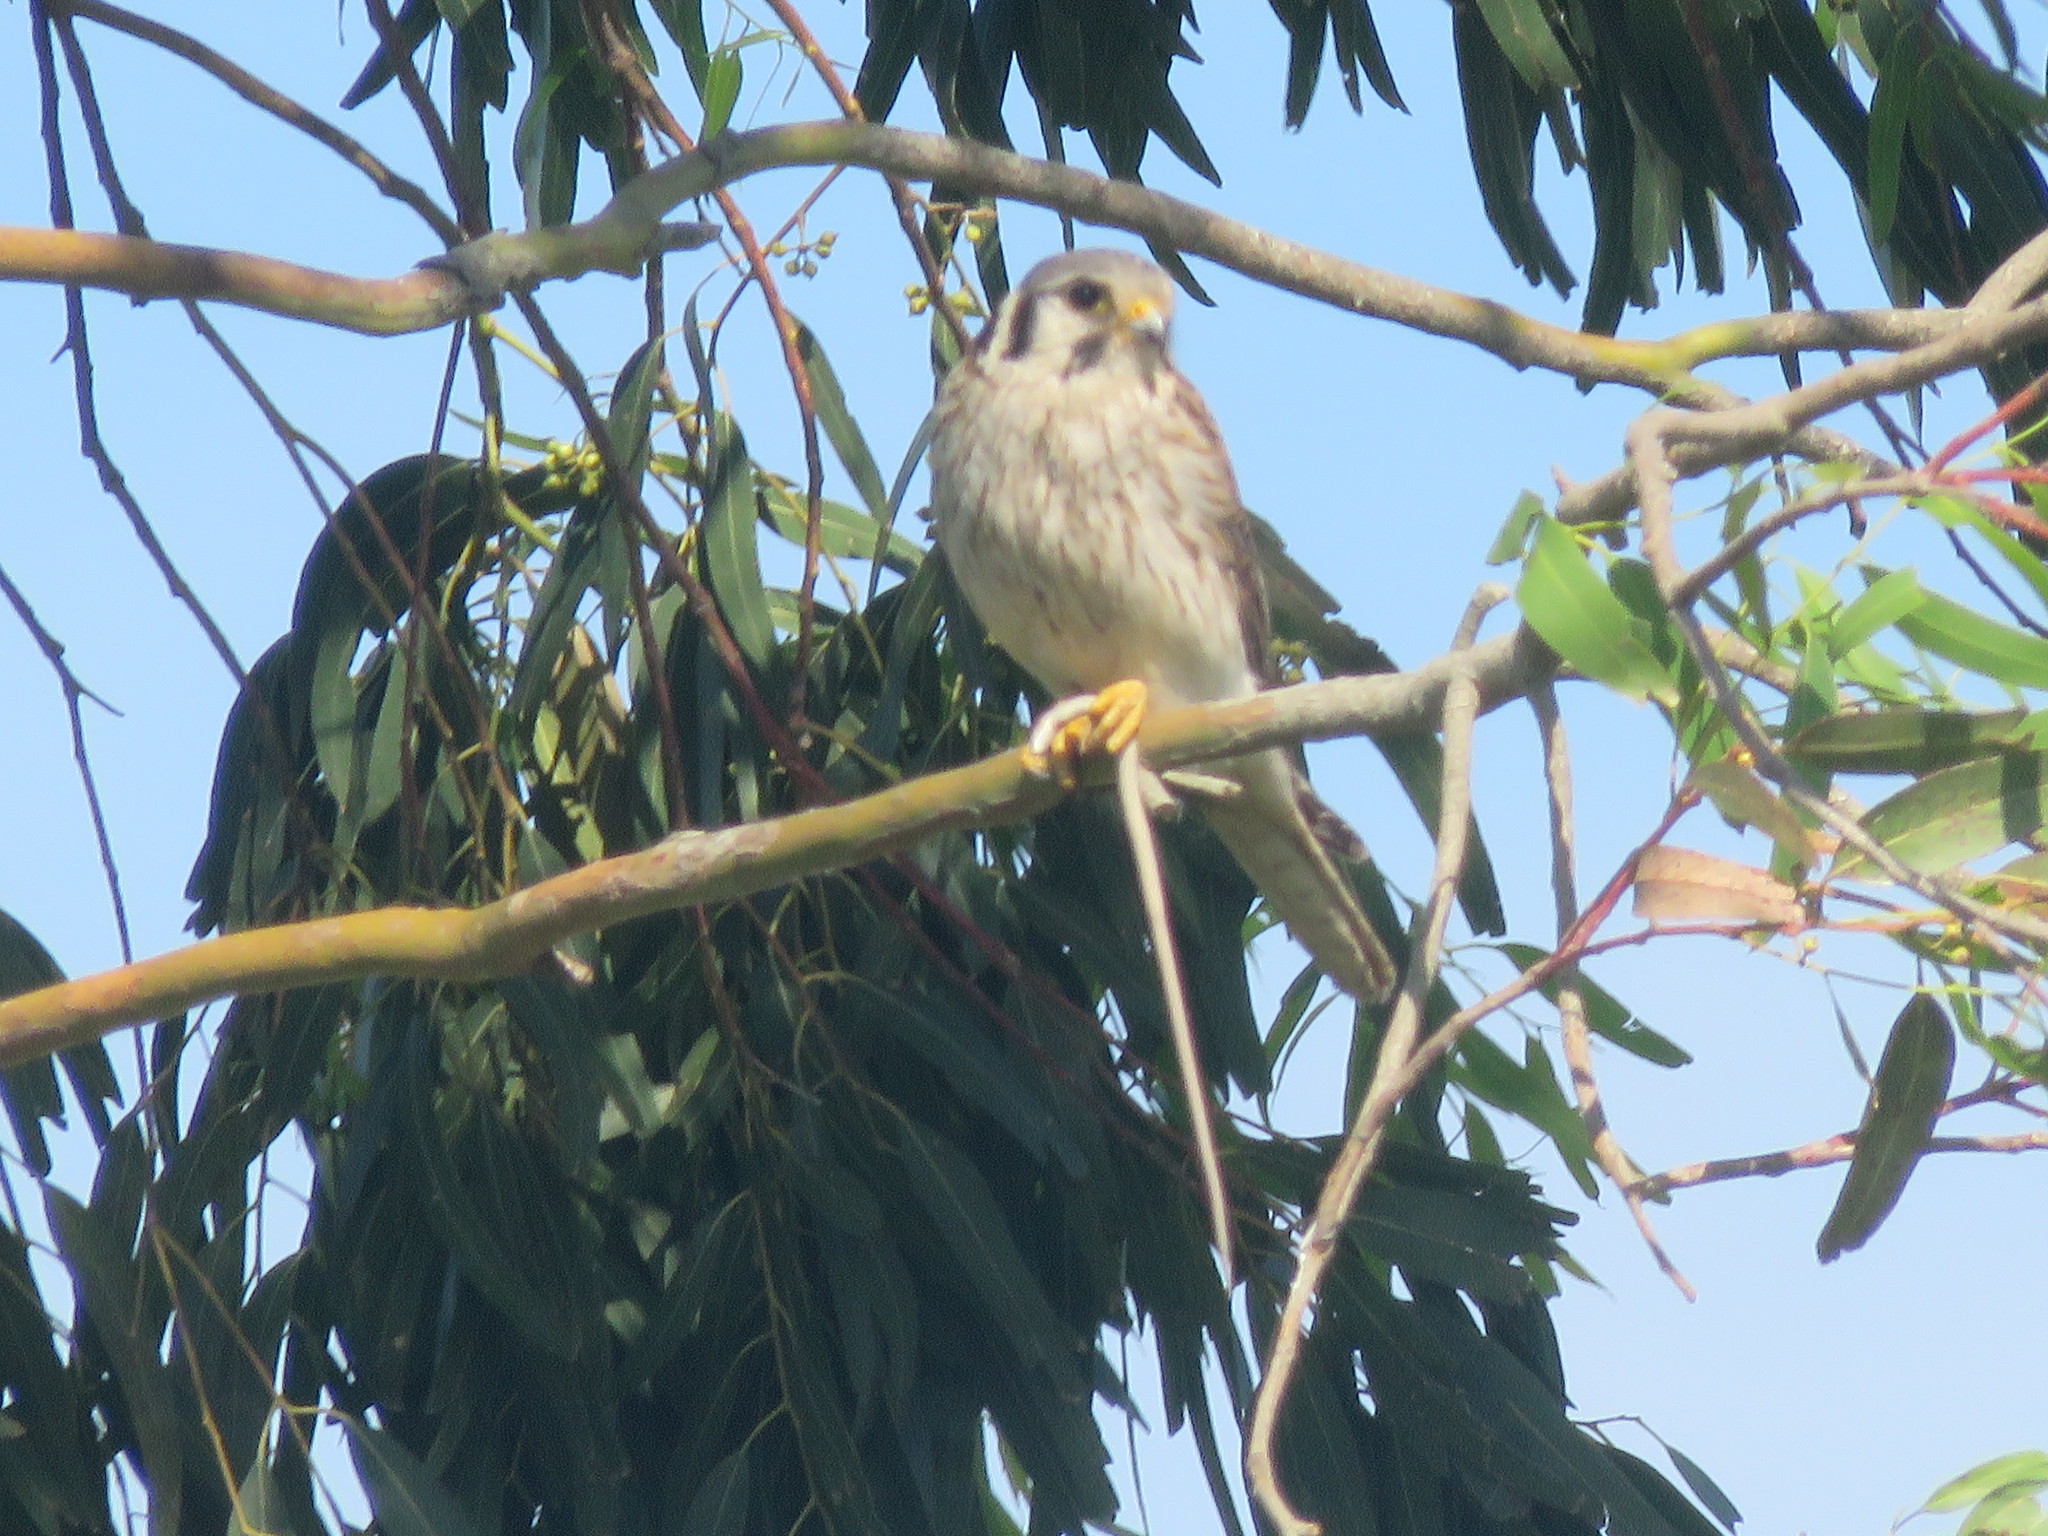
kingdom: Animalia
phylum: Chordata
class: Aves
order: Falconiformes
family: Falconidae
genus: Falco
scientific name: Falco sparverius
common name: American kestrel
